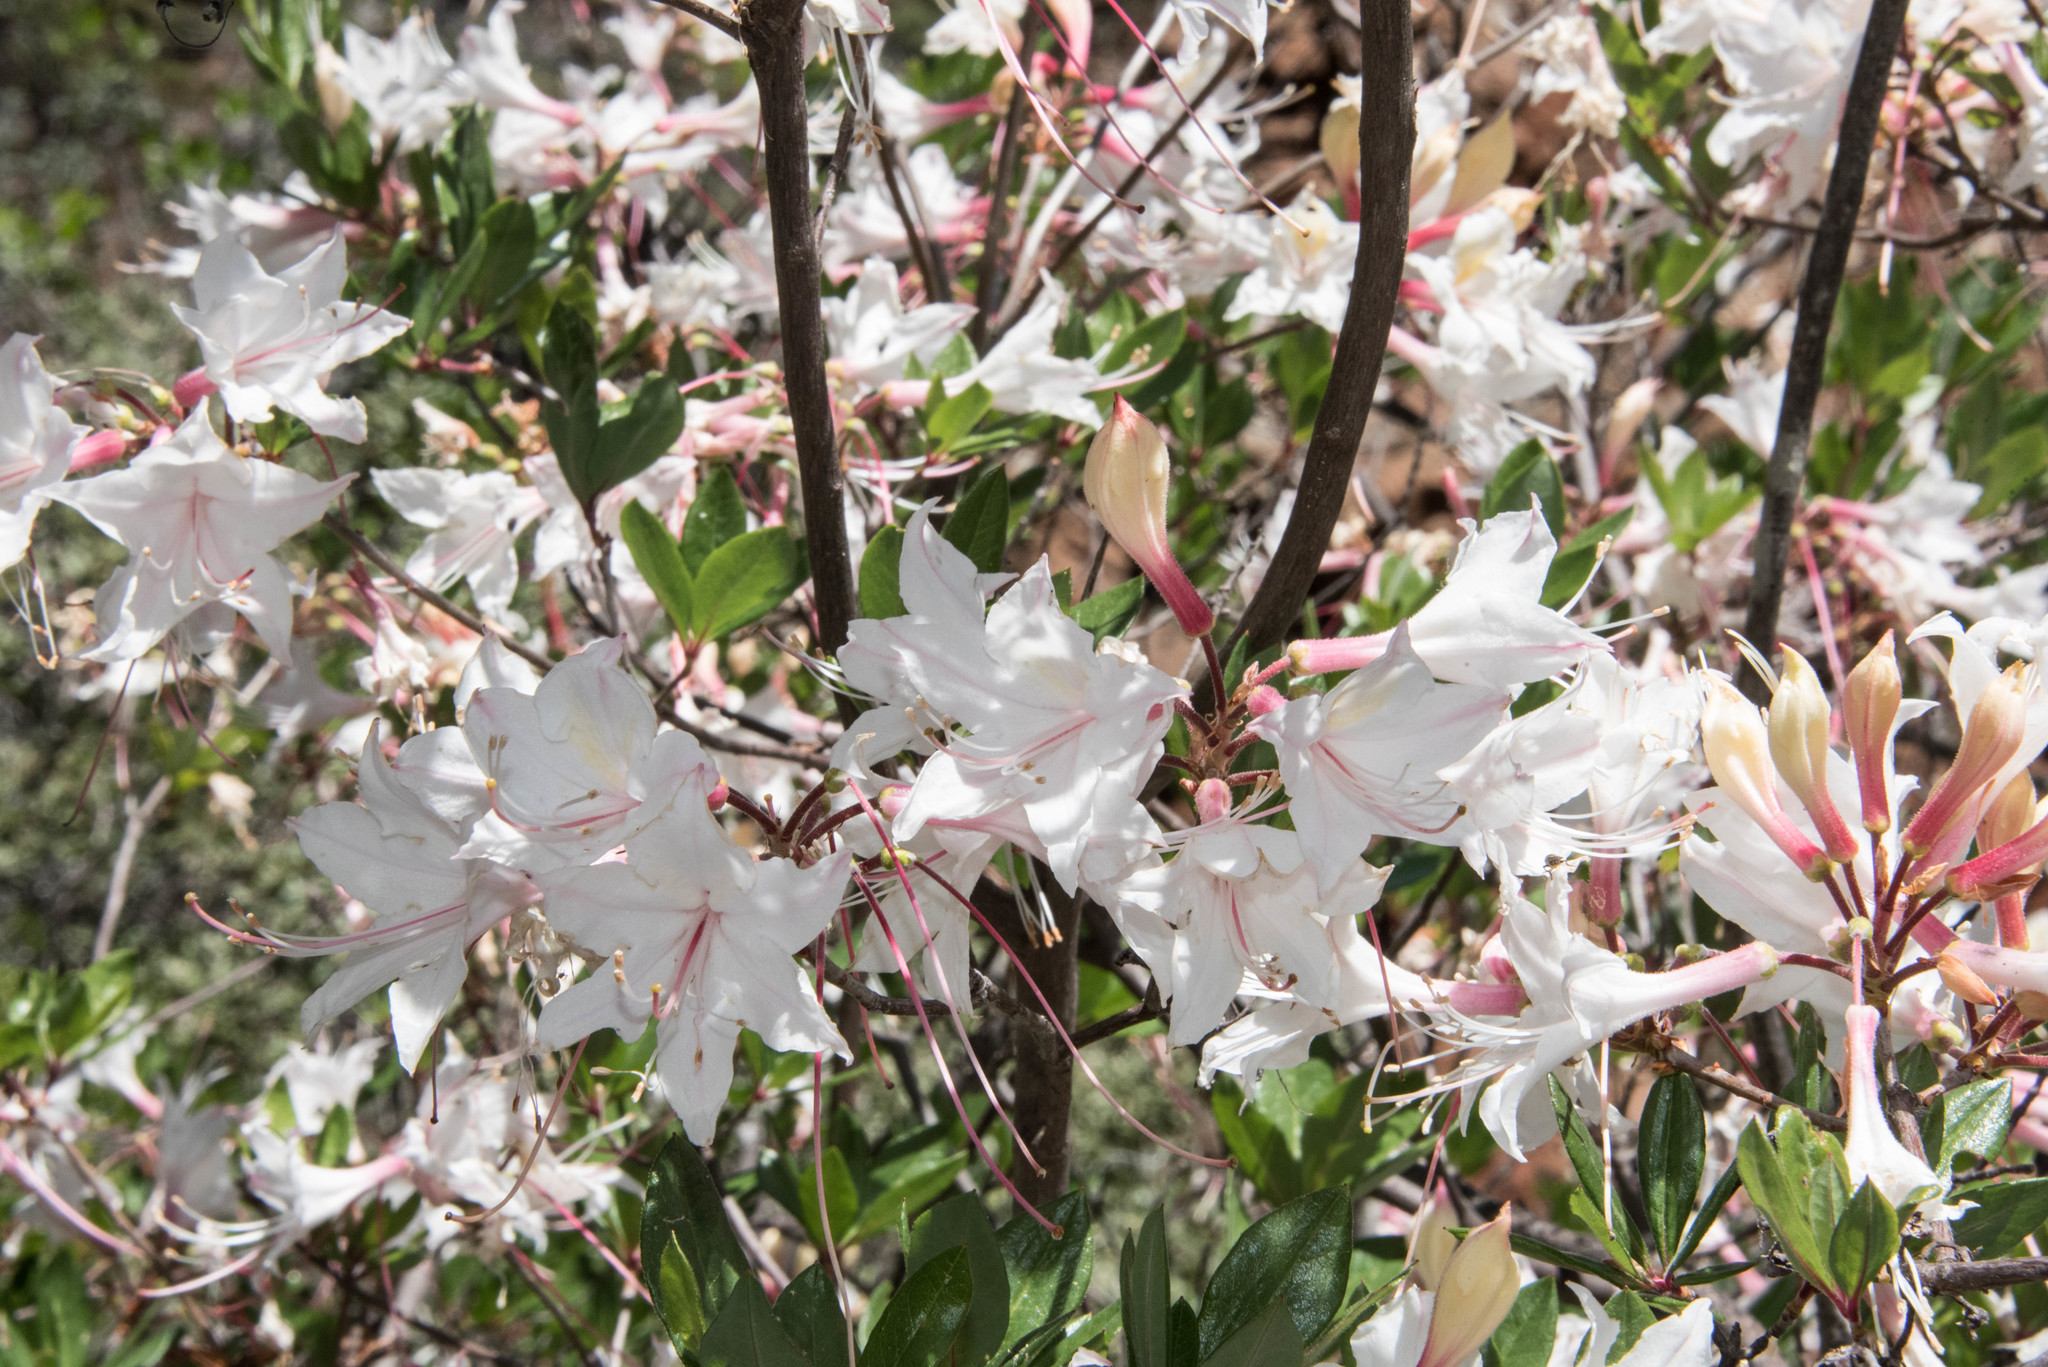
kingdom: Plantae
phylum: Tracheophyta
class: Magnoliopsida
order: Ericales
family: Ericaceae
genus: Rhododendron
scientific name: Rhododendron occidentale
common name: Western azalea
